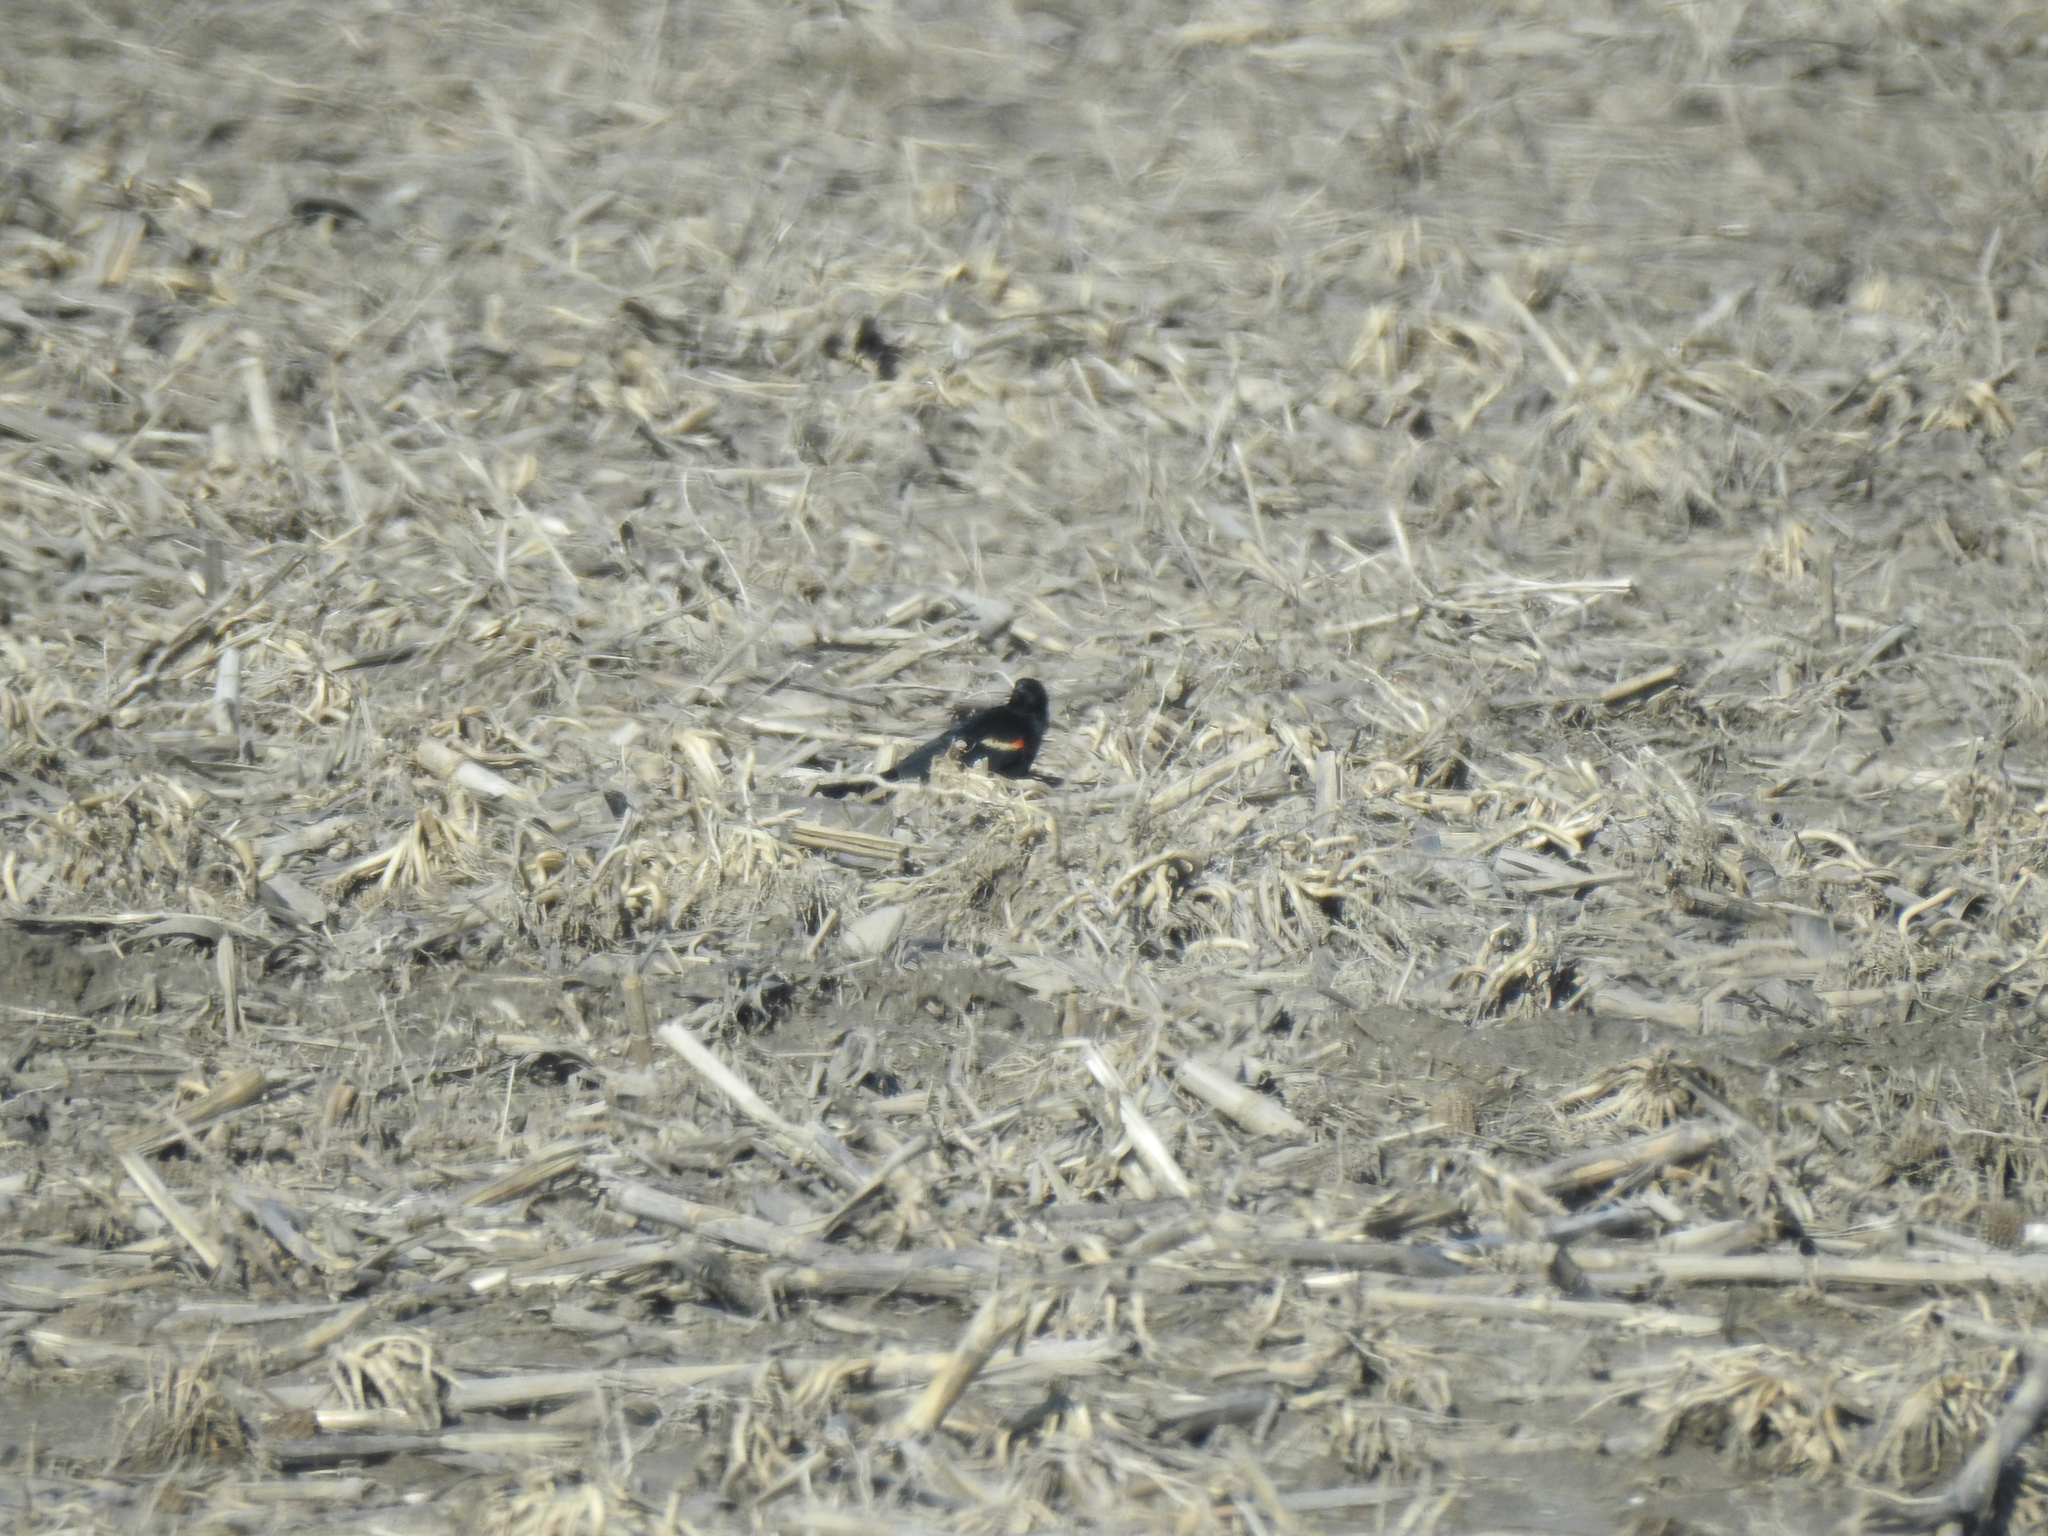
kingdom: Animalia
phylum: Chordata
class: Aves
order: Passeriformes
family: Icteridae
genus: Agelaius
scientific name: Agelaius phoeniceus
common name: Red-winged blackbird
